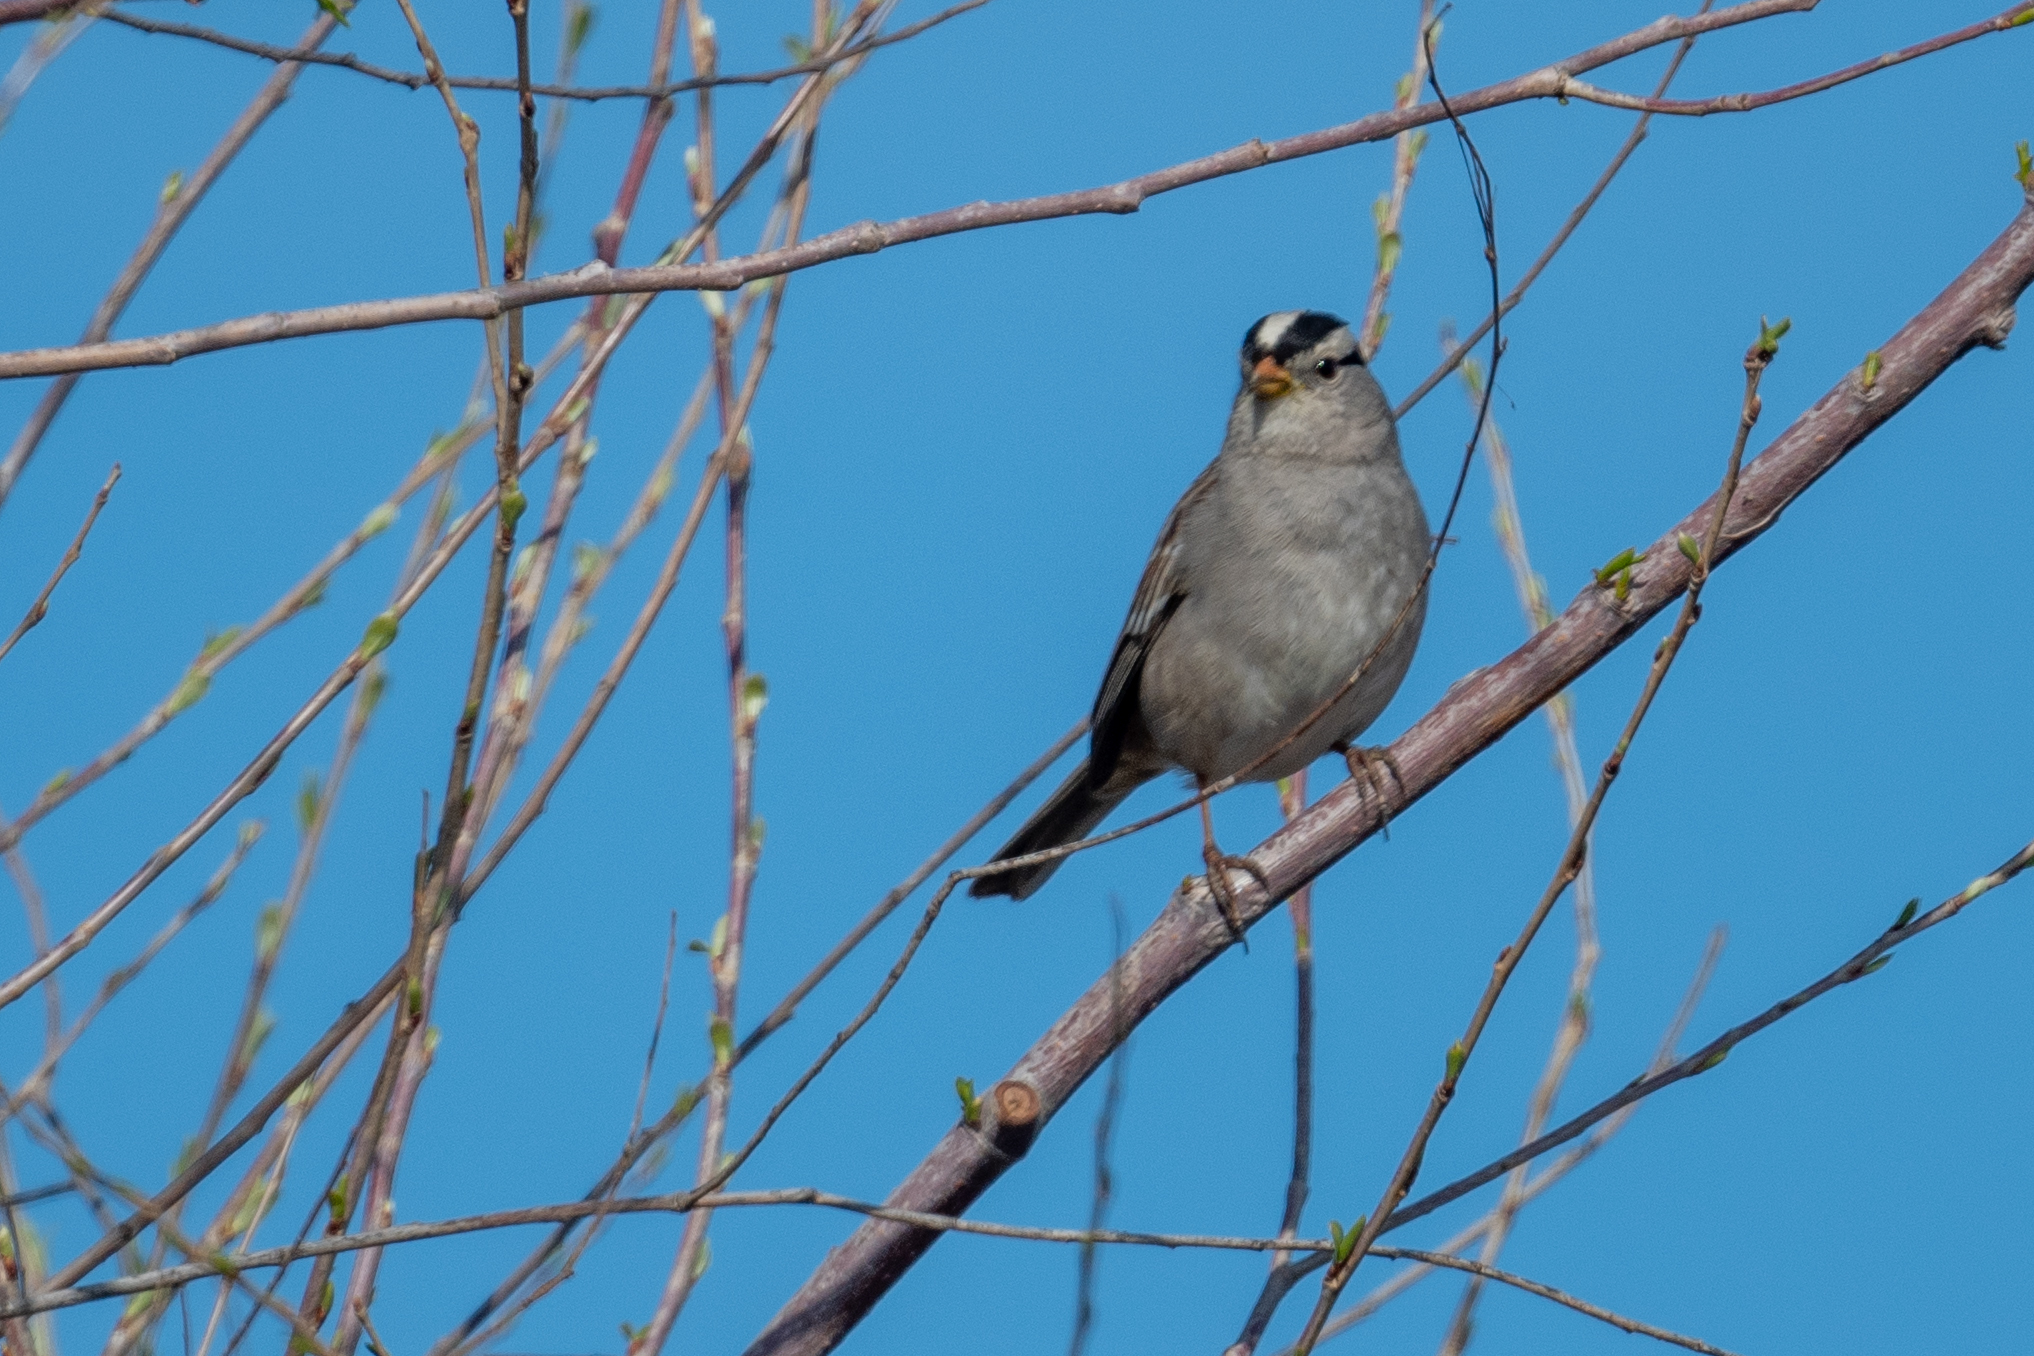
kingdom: Animalia
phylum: Chordata
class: Aves
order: Passeriformes
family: Passerellidae
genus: Zonotrichia
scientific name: Zonotrichia leucophrys
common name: White-crowned sparrow
